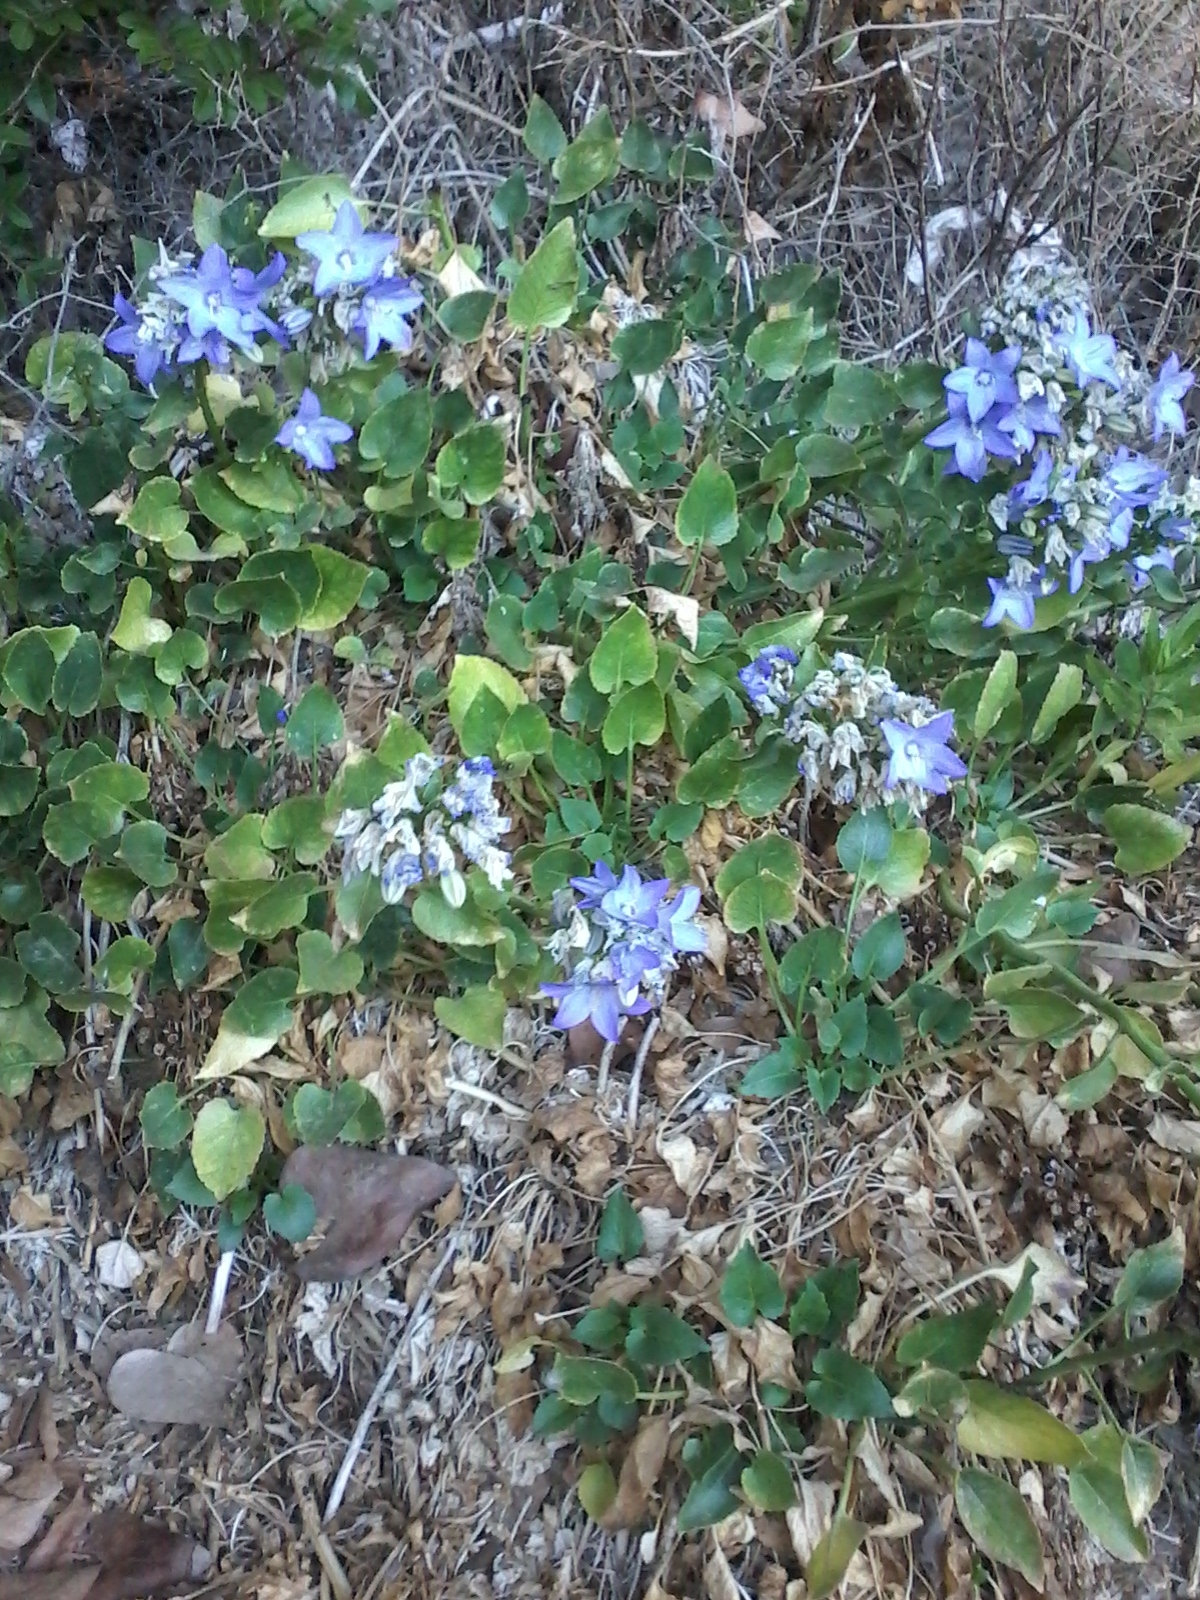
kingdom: Plantae
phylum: Tracheophyta
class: Magnoliopsida
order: Asterales
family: Campanulaceae
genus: Campanula
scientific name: Campanula versicolor
